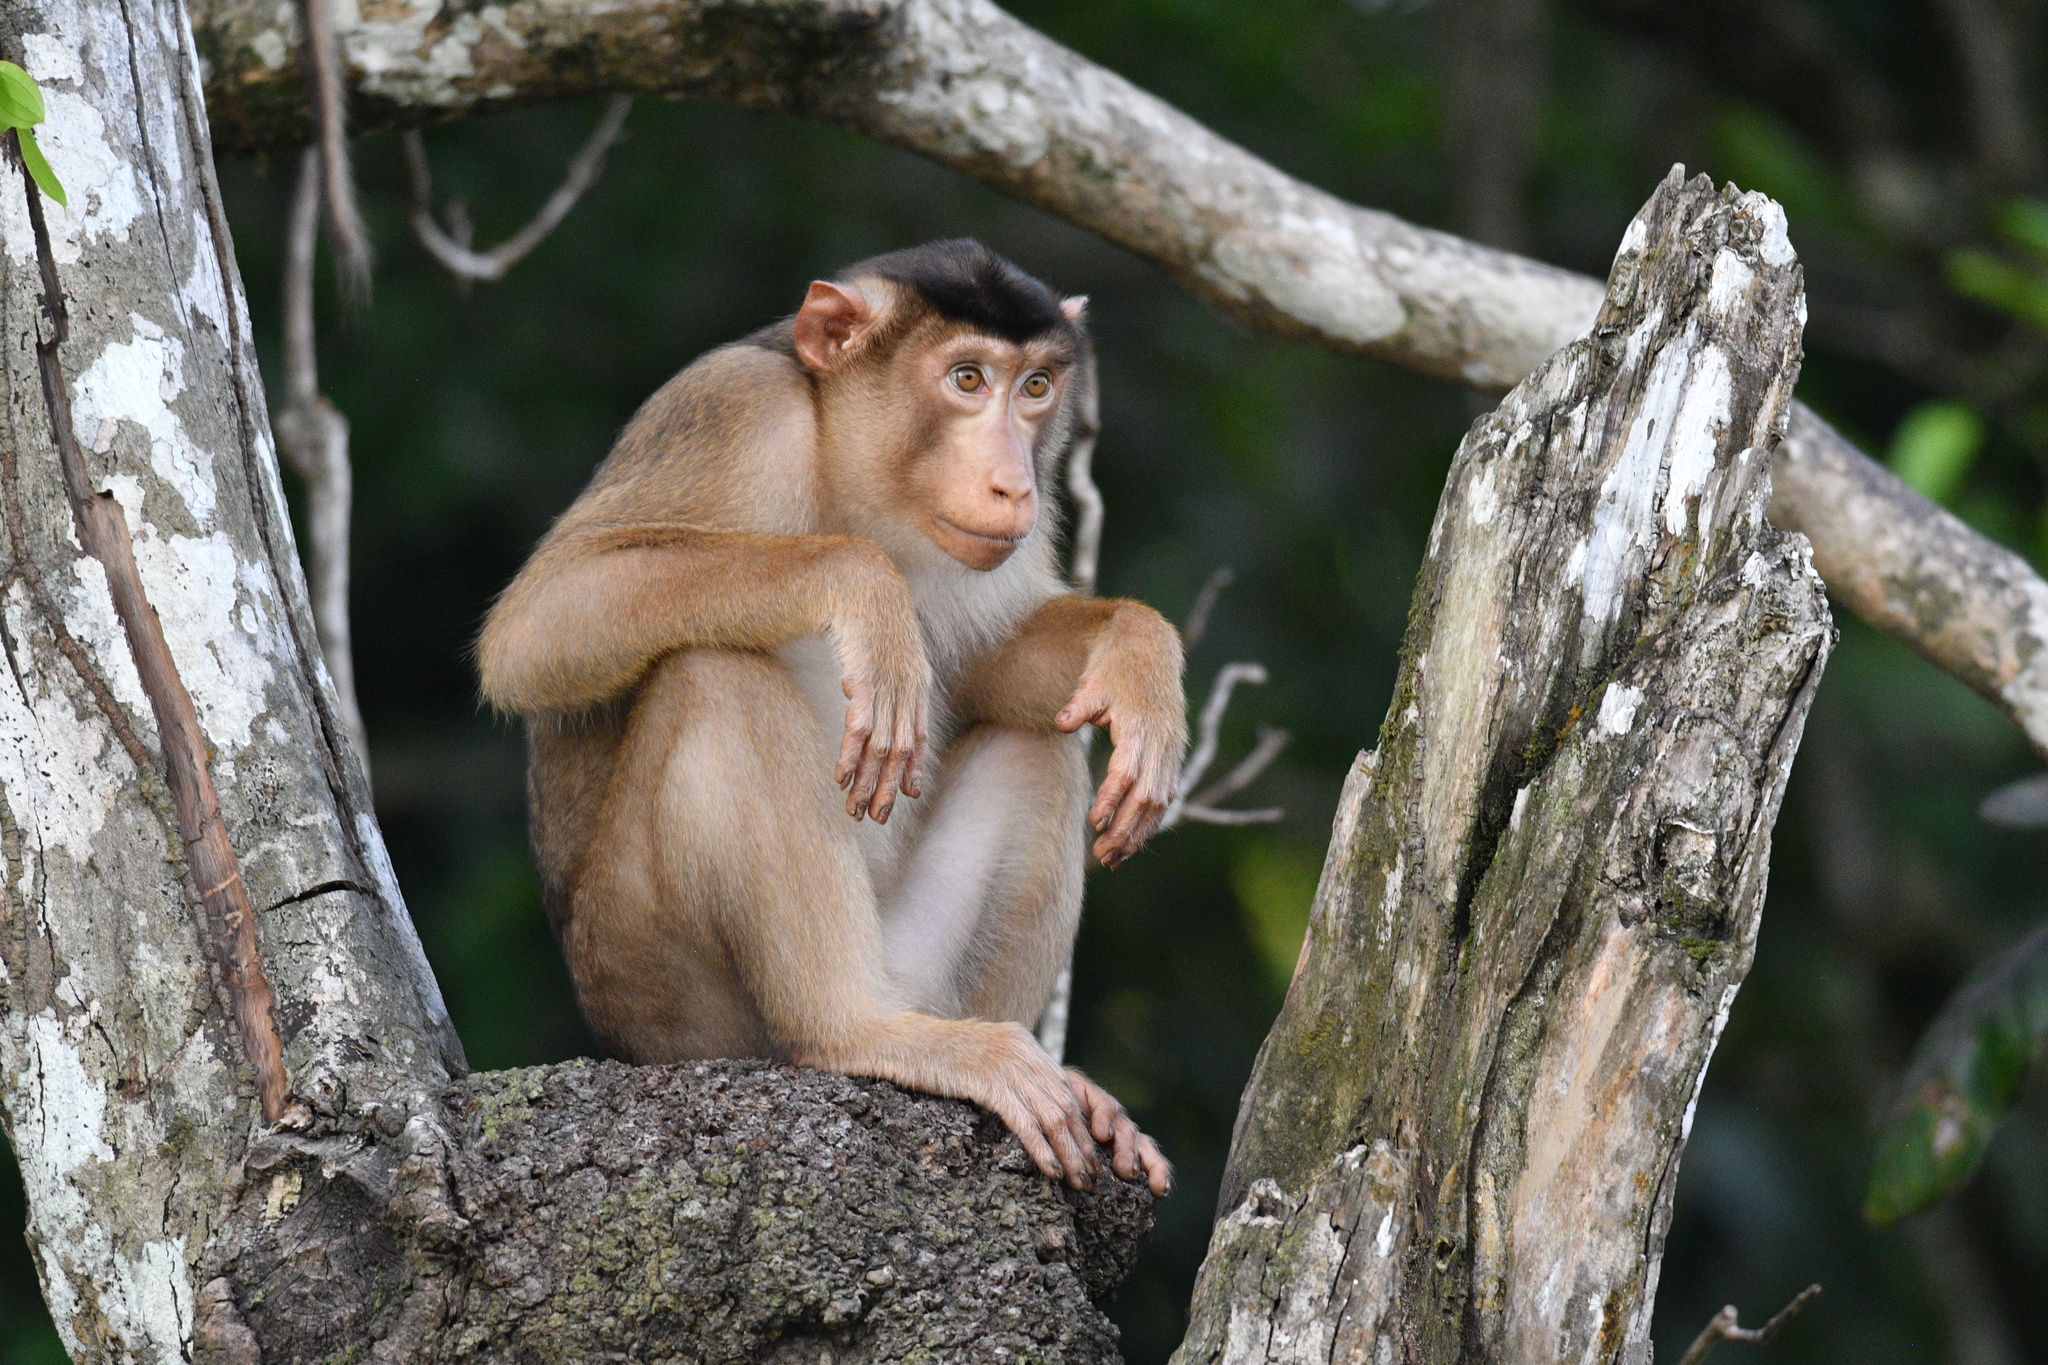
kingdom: Animalia
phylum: Chordata
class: Mammalia
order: Primates
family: Cercopithecidae
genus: Macaca
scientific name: Macaca nemestrina
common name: Southern pig-tailed macaque
